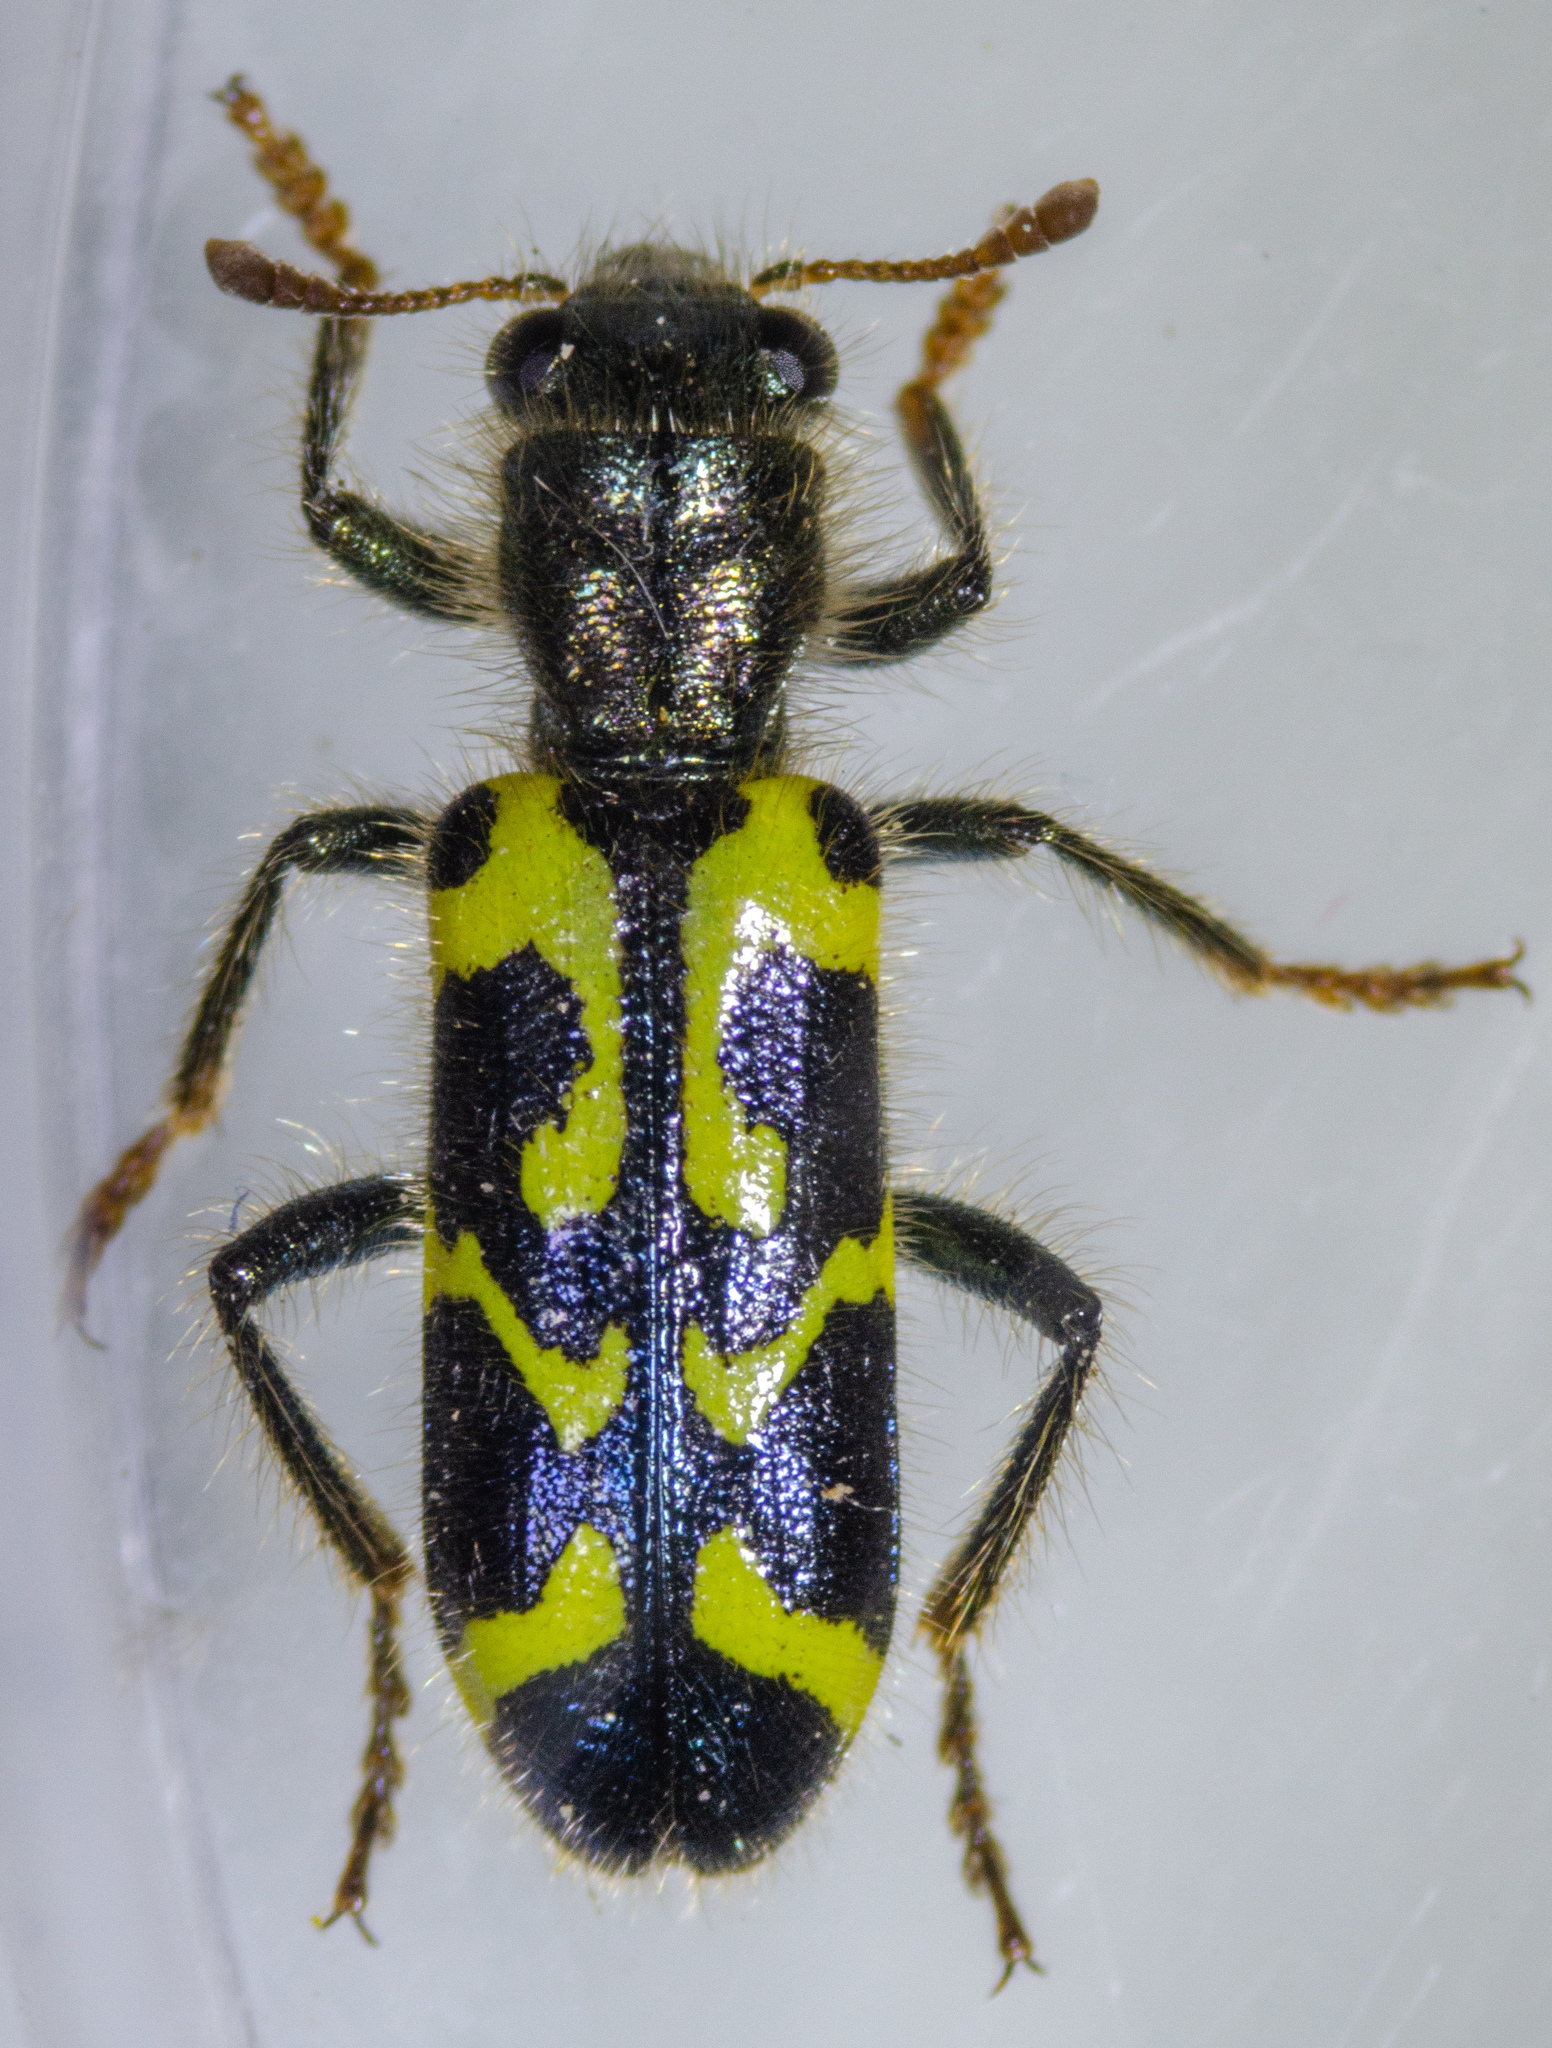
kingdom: Animalia
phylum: Arthropoda
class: Insecta
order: Coleoptera
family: Cleridae
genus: Trichodes
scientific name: Trichodes ornatus
